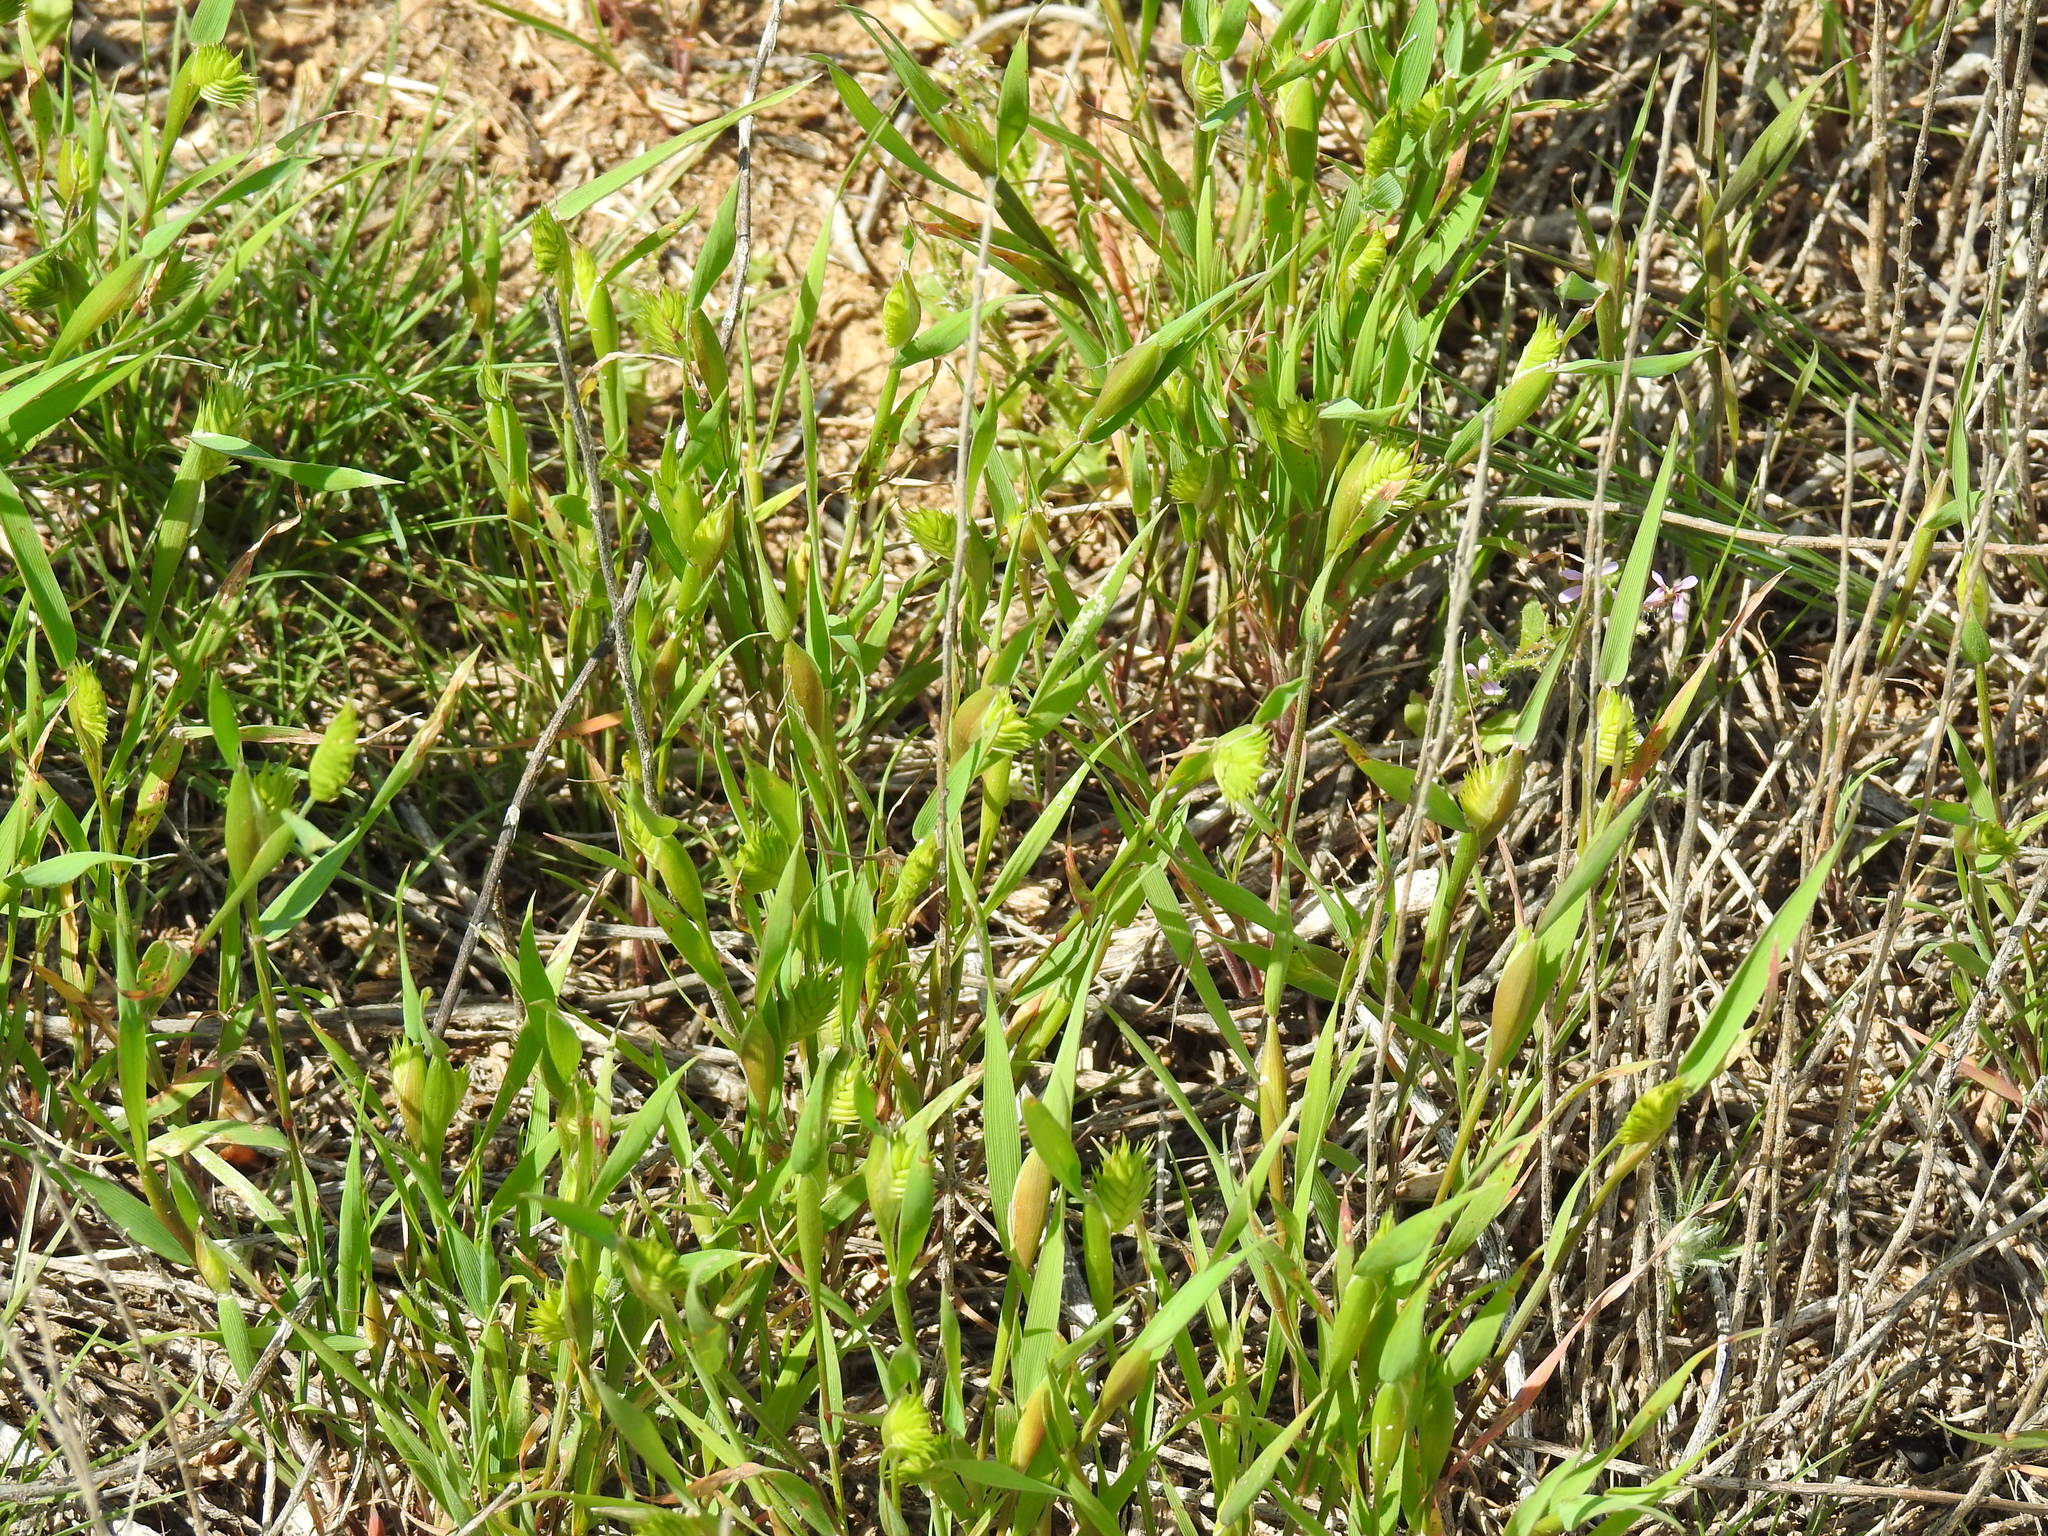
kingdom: Plantae
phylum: Tracheophyta
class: Liliopsida
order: Poales
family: Poaceae
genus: Eremopyrum
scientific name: Eremopyrum triticeum
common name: Annual wheatgrass
